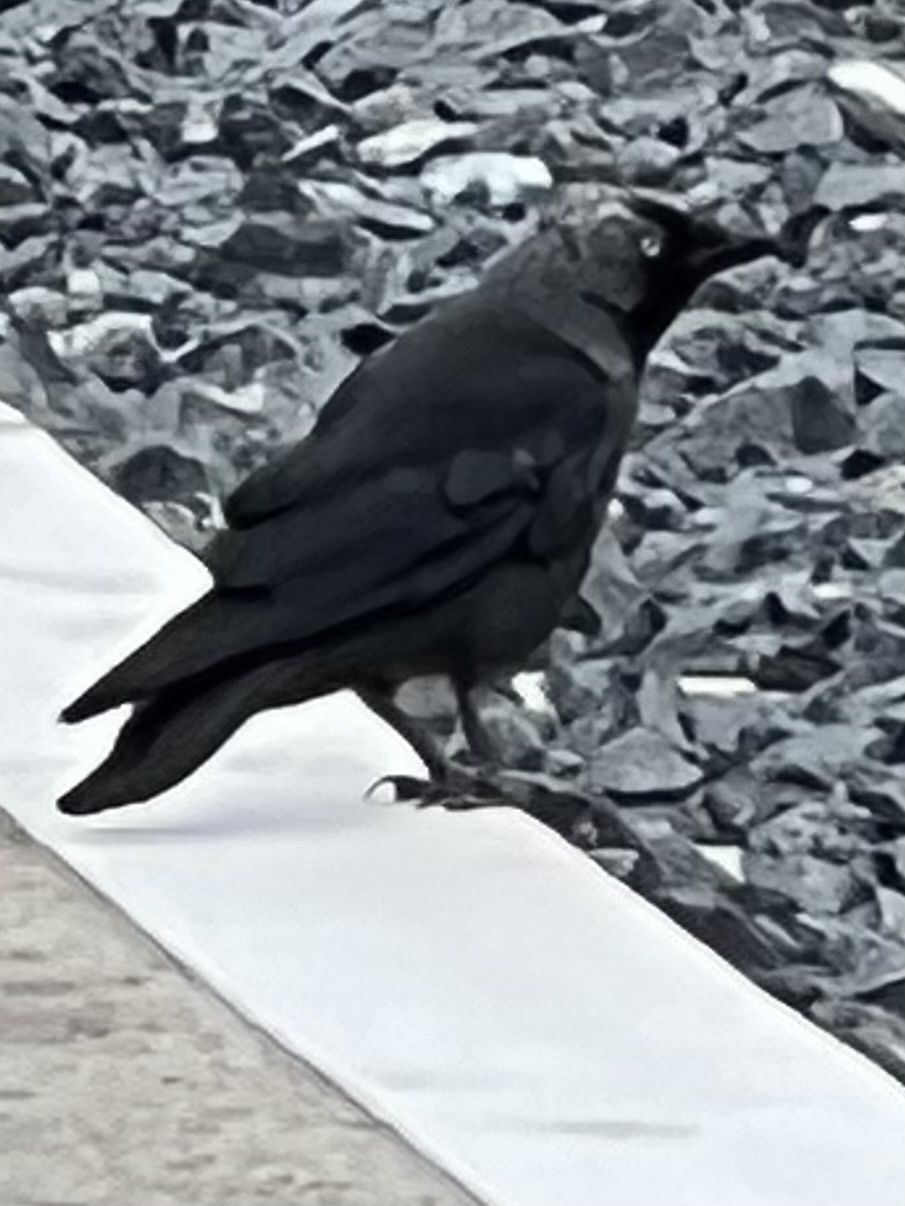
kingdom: Animalia
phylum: Chordata
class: Aves
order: Passeriformes
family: Corvidae
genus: Coloeus
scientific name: Coloeus monedula
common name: Western jackdaw
